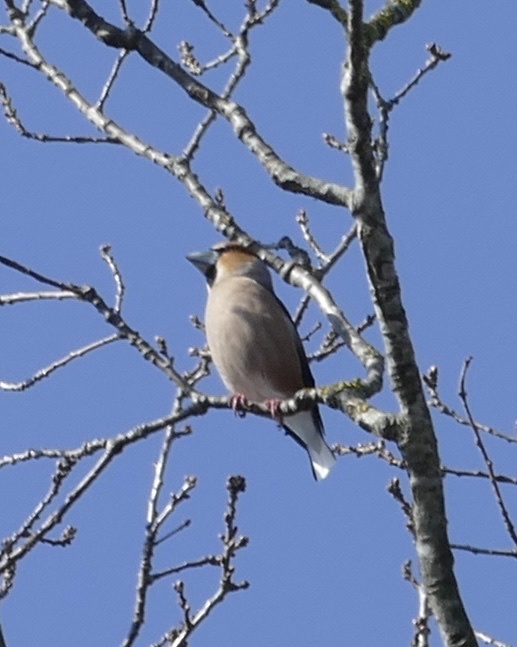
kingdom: Animalia
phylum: Chordata
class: Aves
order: Passeriformes
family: Fringillidae
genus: Coccothraustes
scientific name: Coccothraustes coccothraustes
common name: Hawfinch
